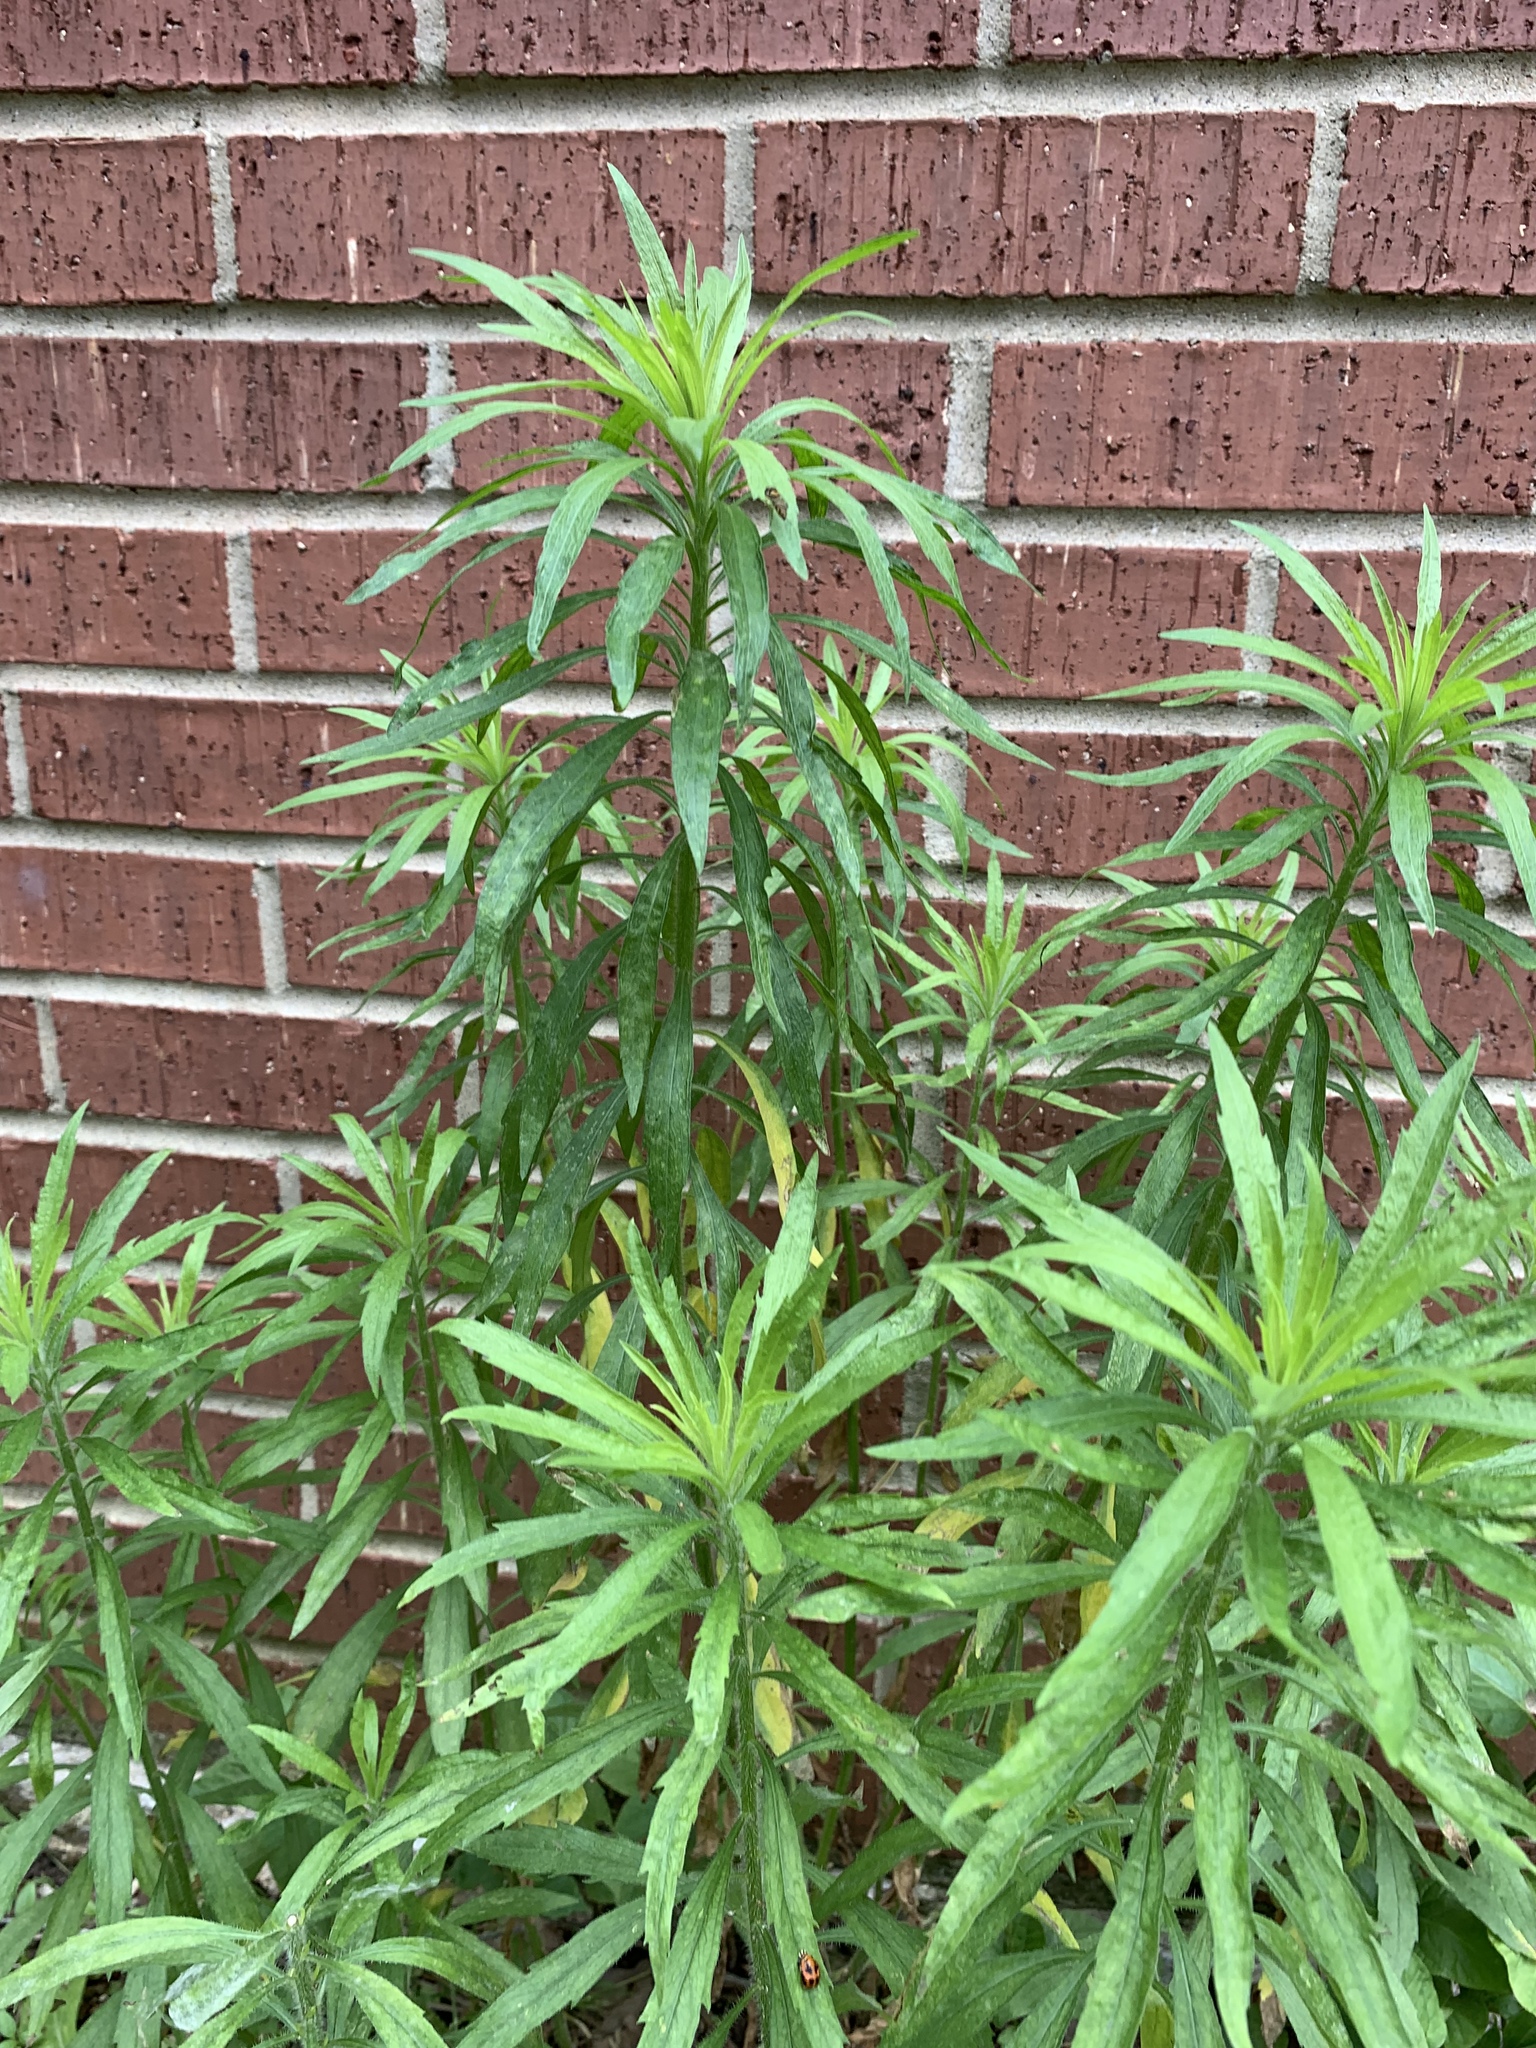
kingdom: Plantae
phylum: Tracheophyta
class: Magnoliopsida
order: Asterales
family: Asteraceae
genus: Erigeron
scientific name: Erigeron canadensis
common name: Canadian fleabane
